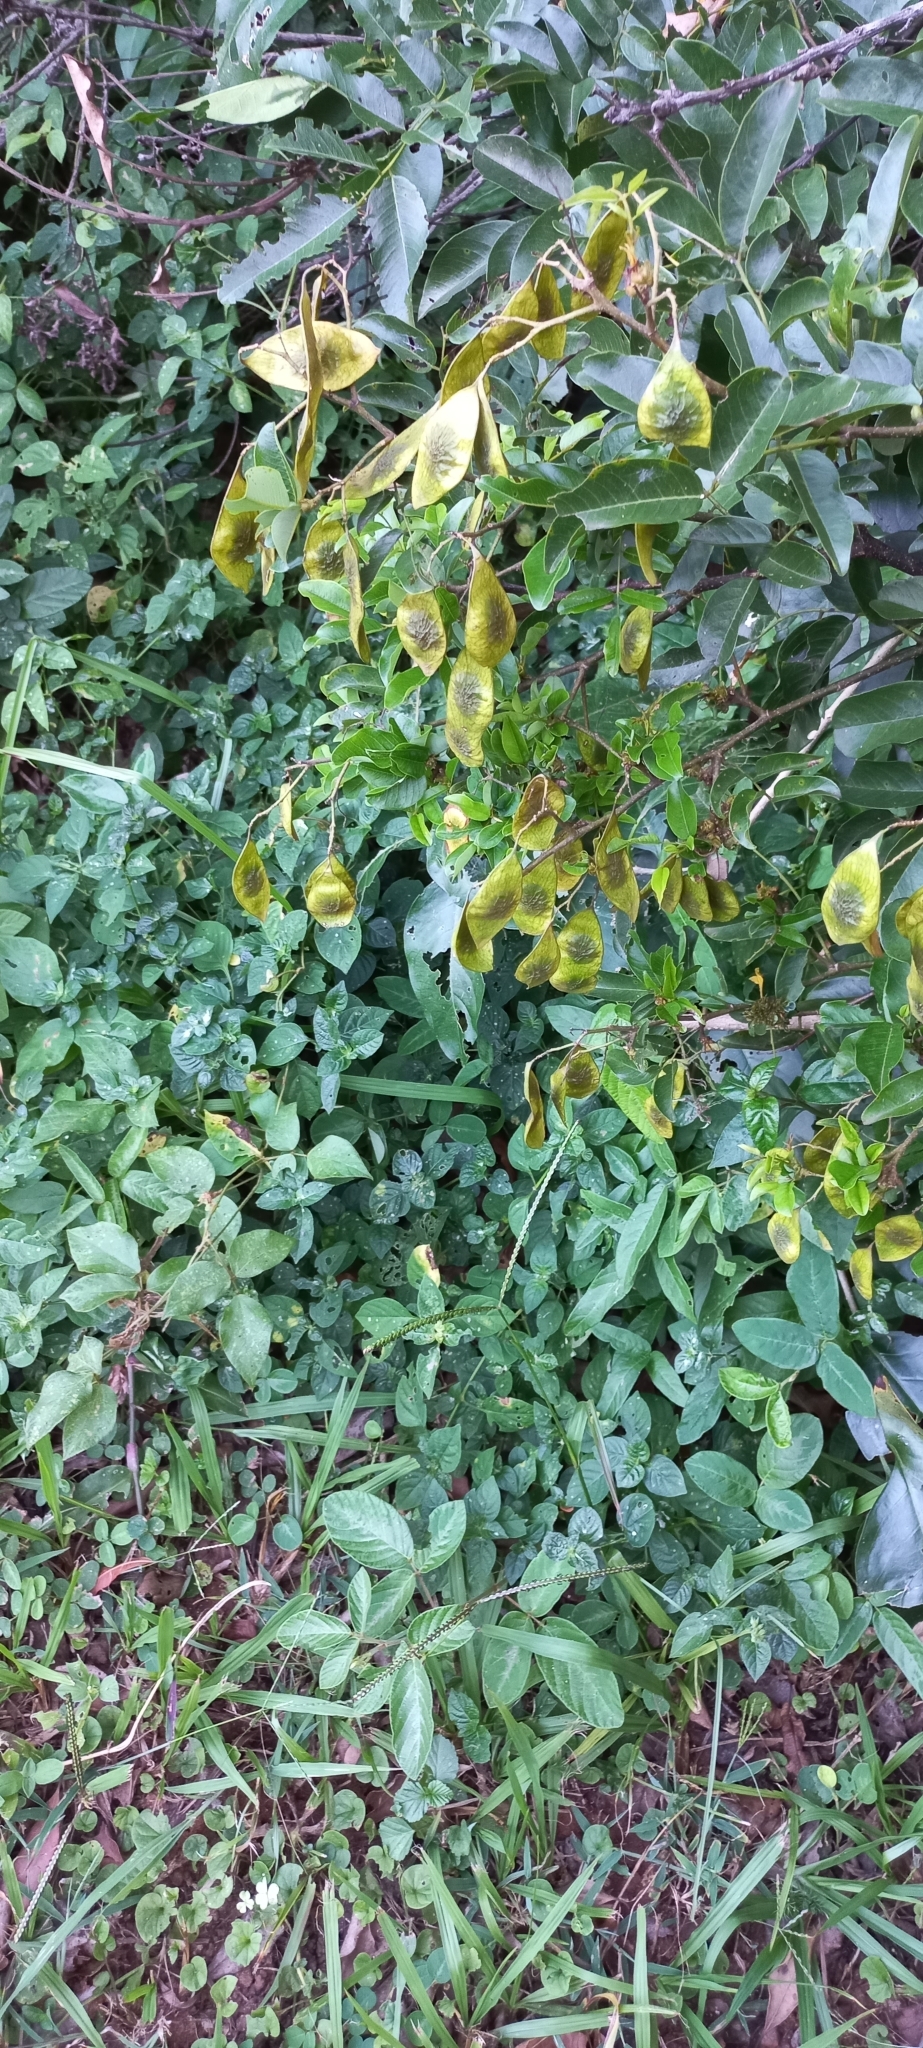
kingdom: Plantae
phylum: Tracheophyta
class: Magnoliopsida
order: Fabales
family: Fabaceae
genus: Dalbergia
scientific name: Dalbergia obovata
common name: Climbing flat-bean
